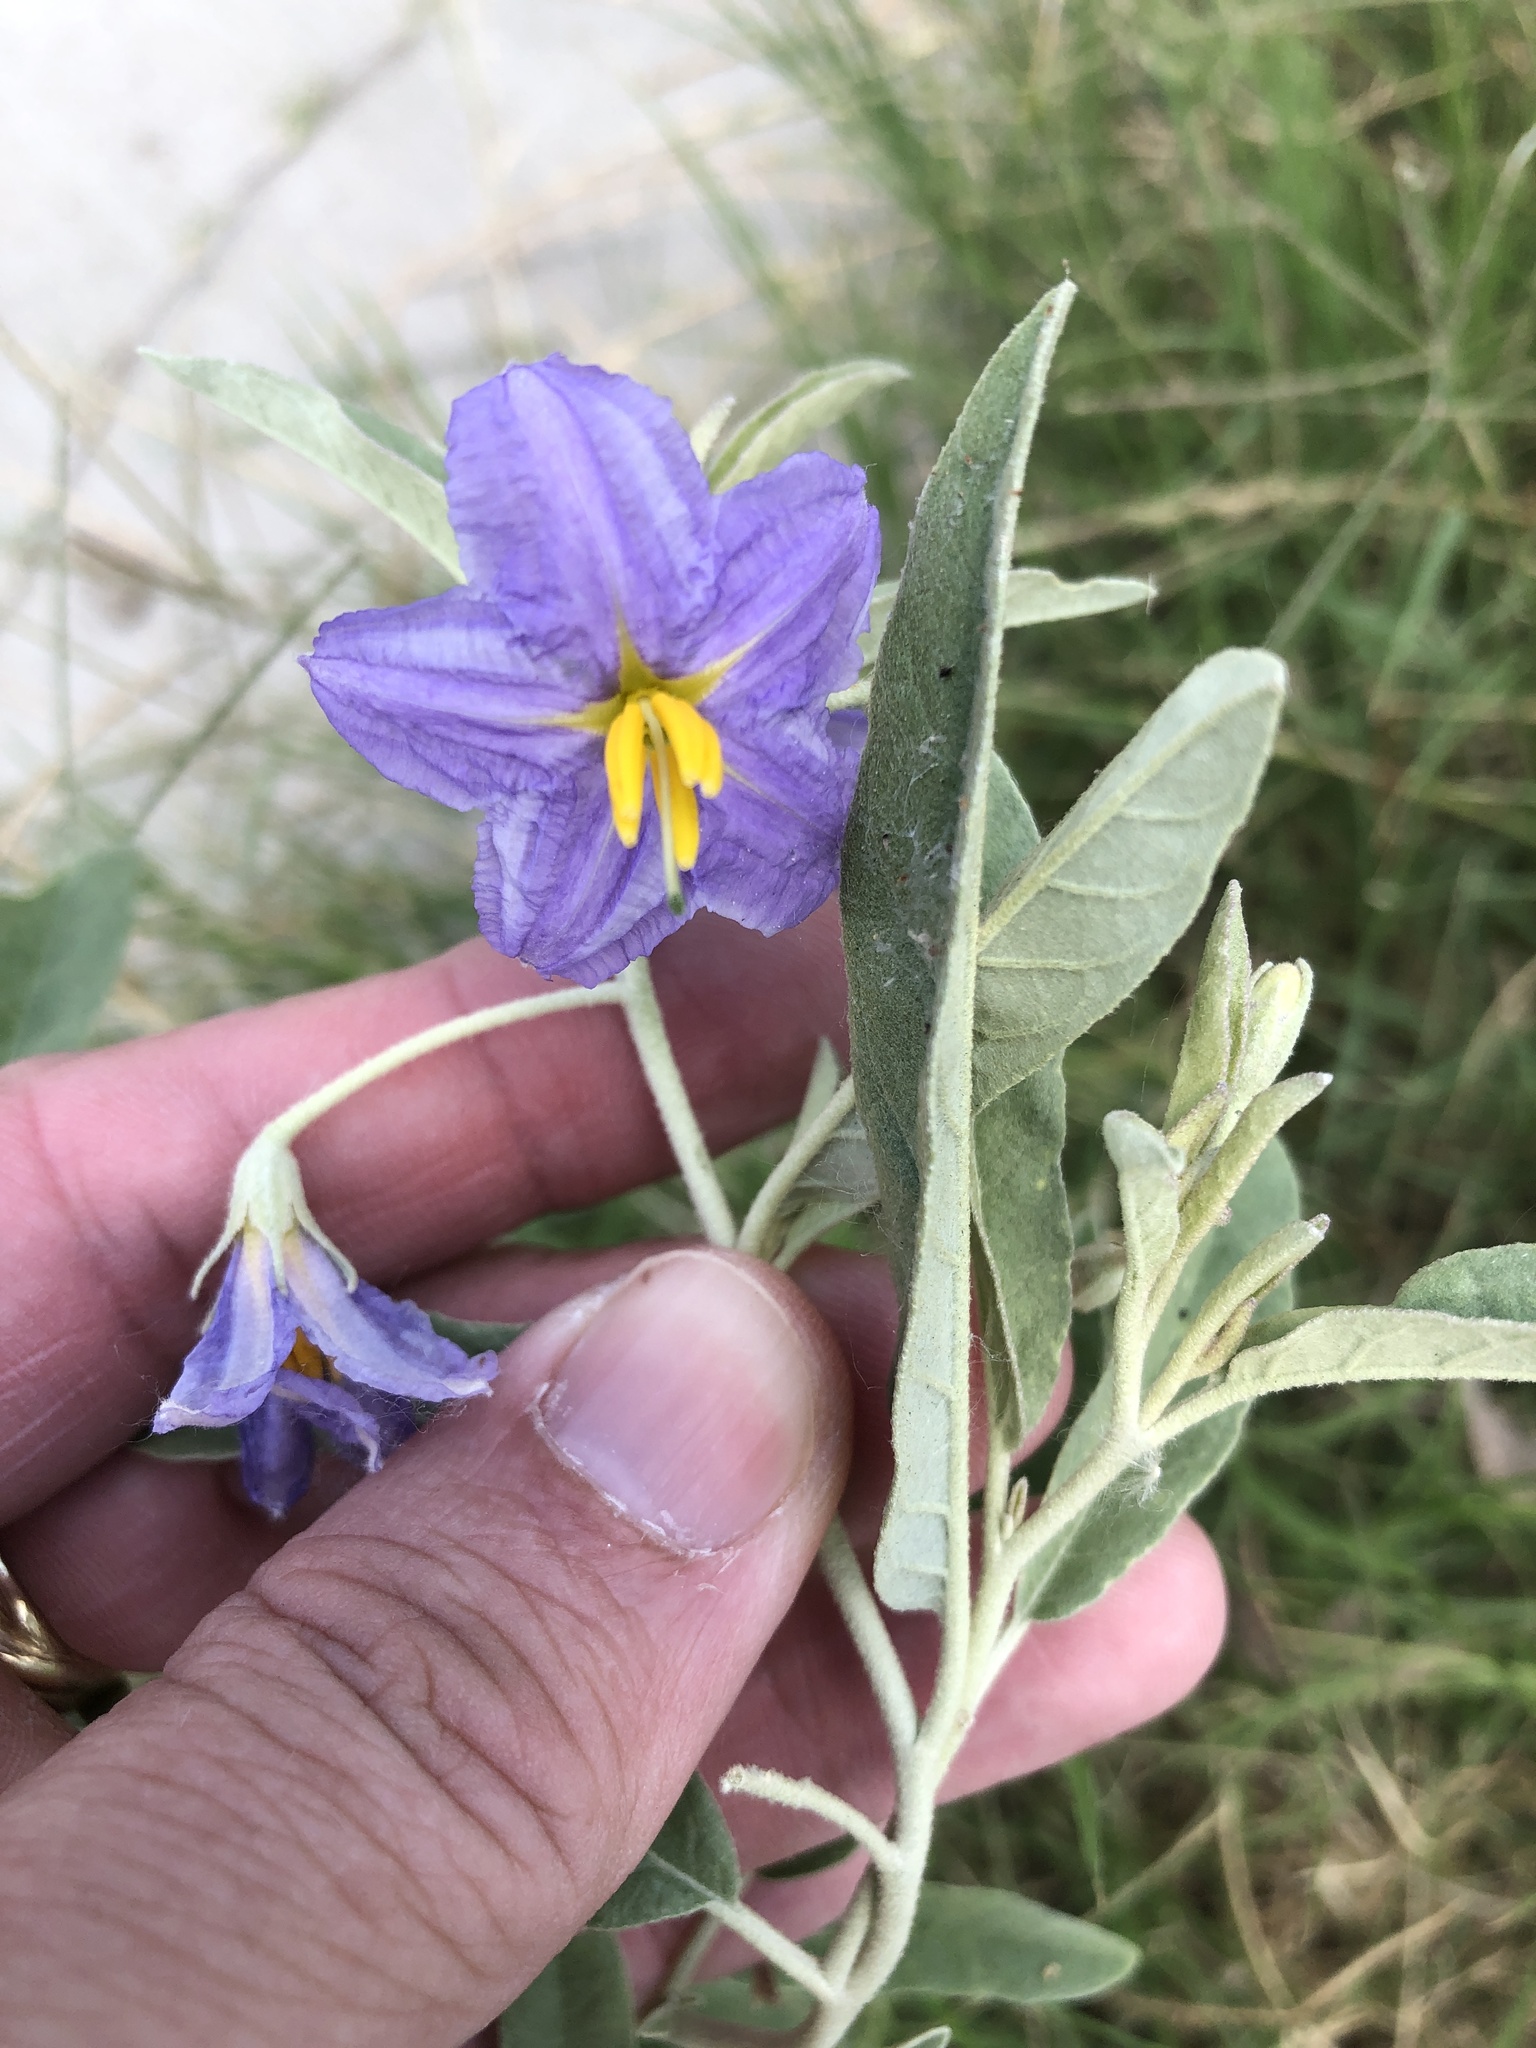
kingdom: Plantae
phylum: Tracheophyta
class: Magnoliopsida
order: Solanales
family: Solanaceae
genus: Solanum
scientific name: Solanum elaeagnifolium
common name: Silverleaf nightshade
